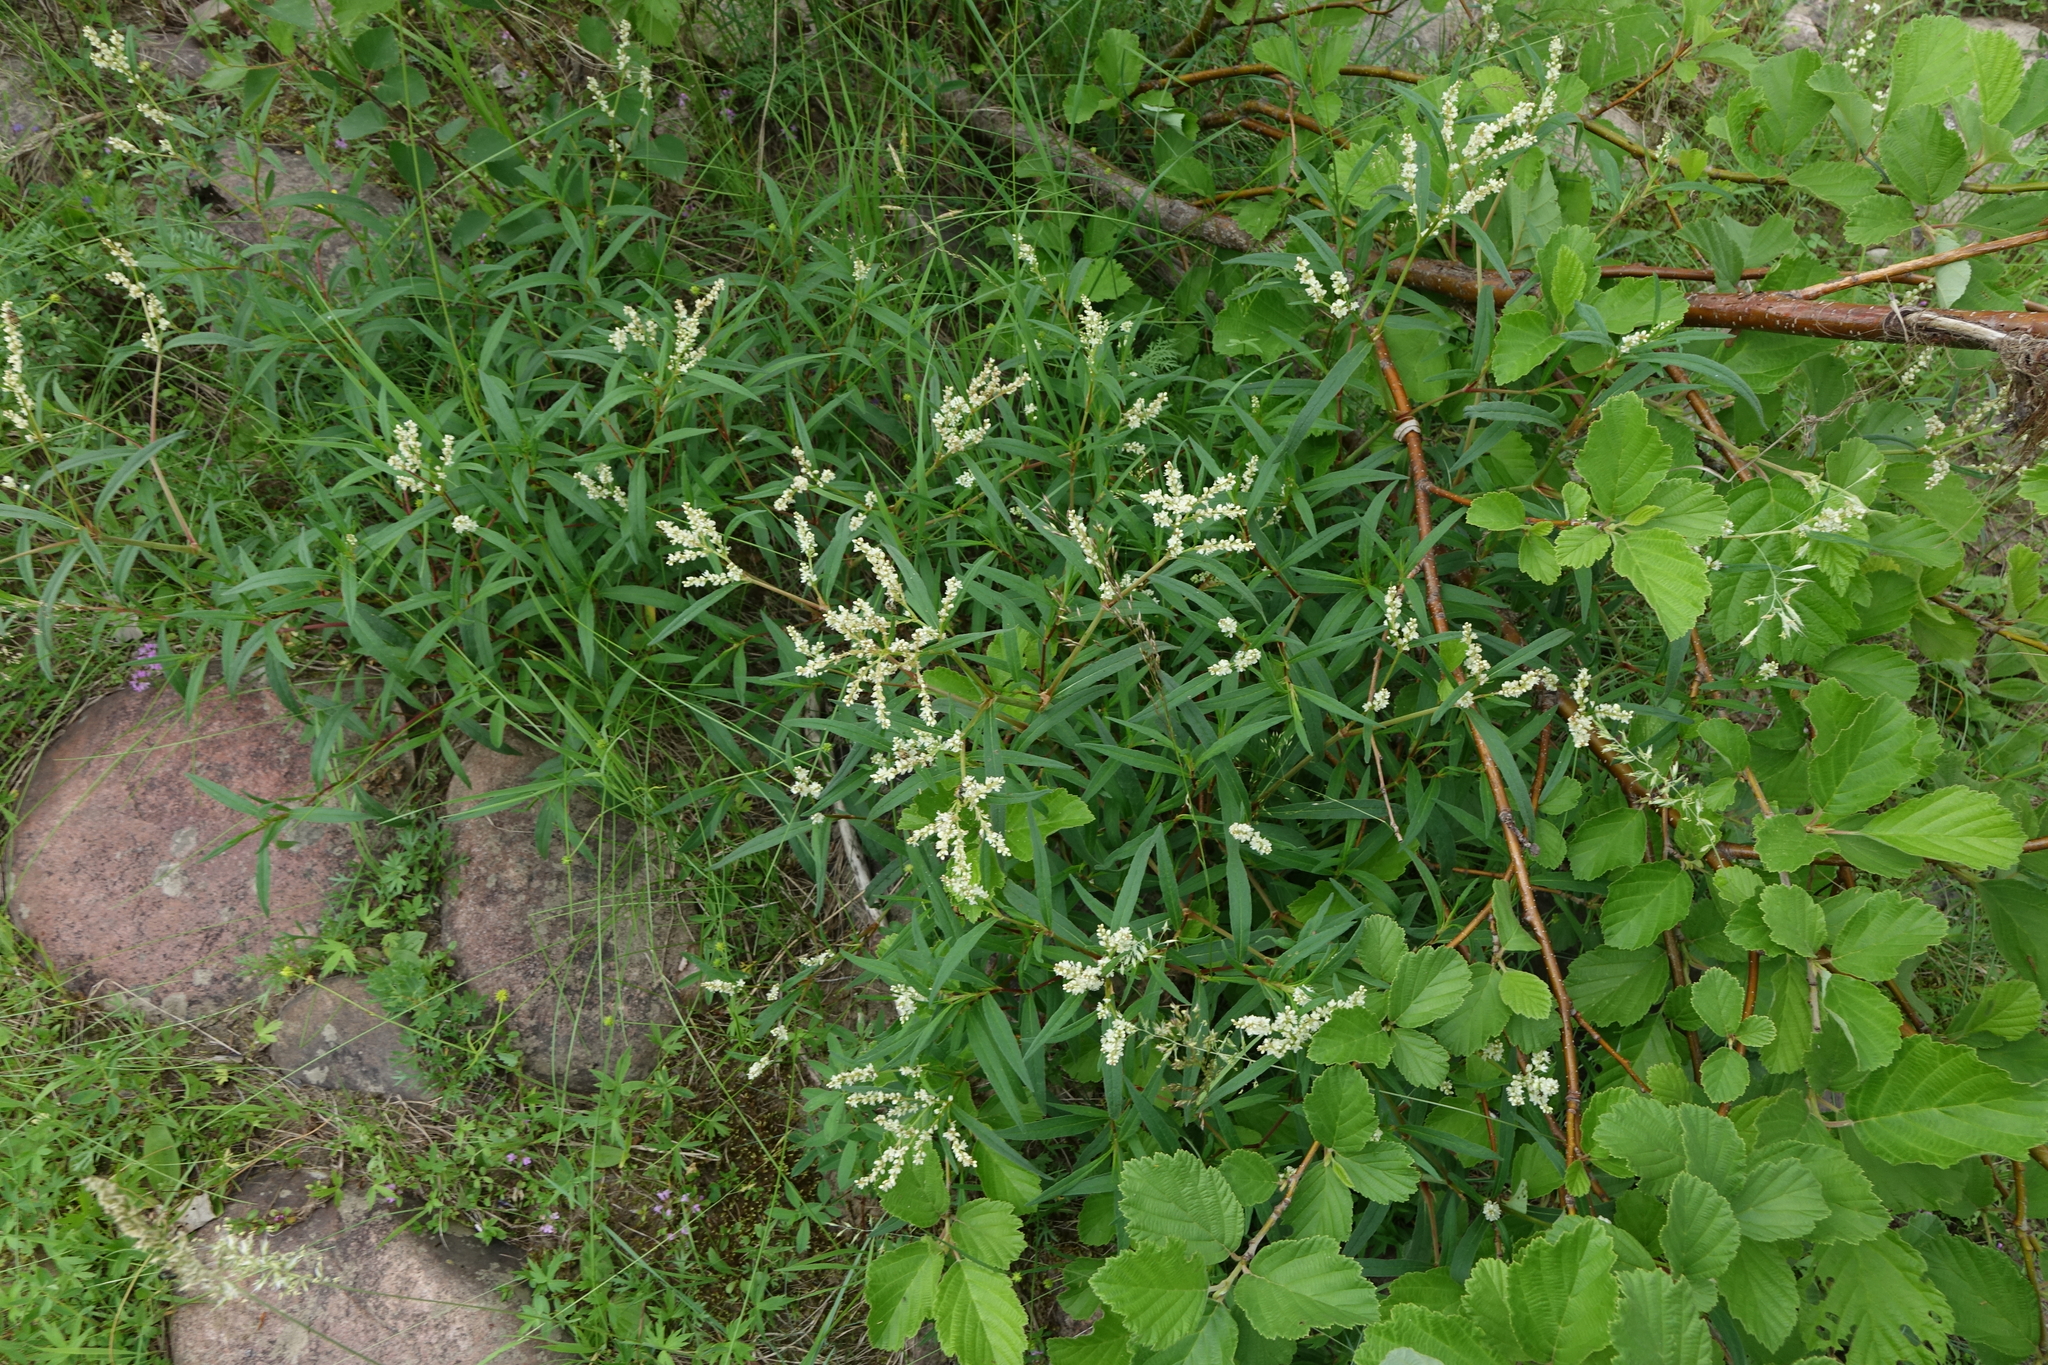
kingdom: Plantae
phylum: Tracheophyta
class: Magnoliopsida
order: Caryophyllales
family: Polygonaceae
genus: Koenigia
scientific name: Koenigia divaricata
